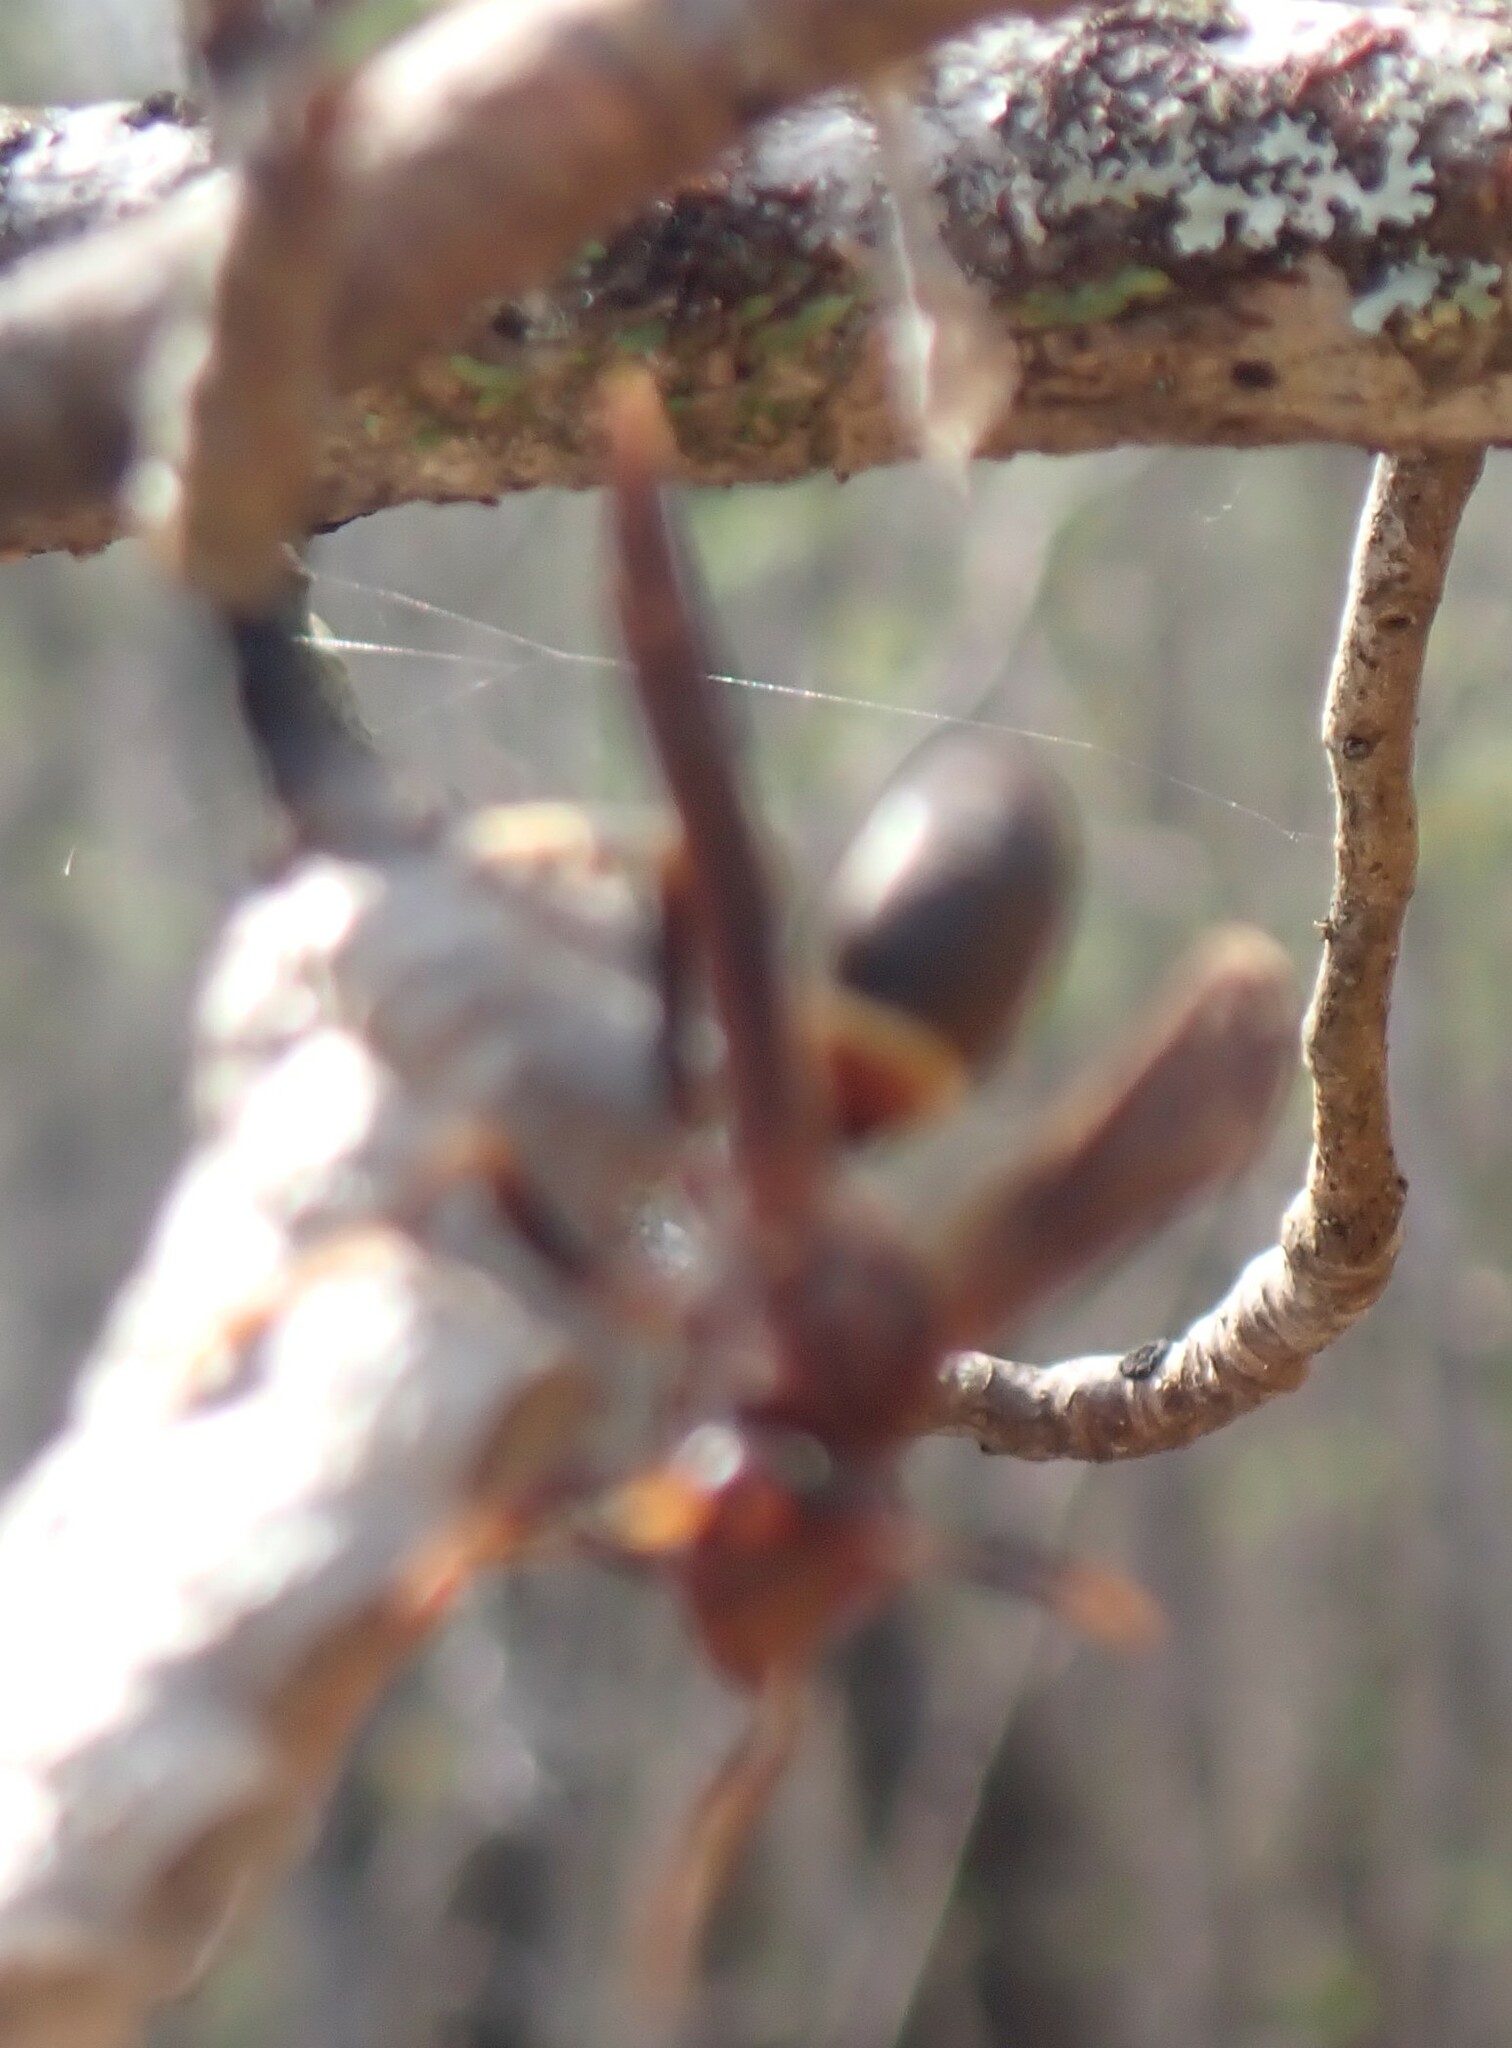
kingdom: Animalia
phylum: Arthropoda
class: Insecta
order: Hymenoptera
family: Eumenidae
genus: Polistes
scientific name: Polistes annularis
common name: Ringed paper wasp
